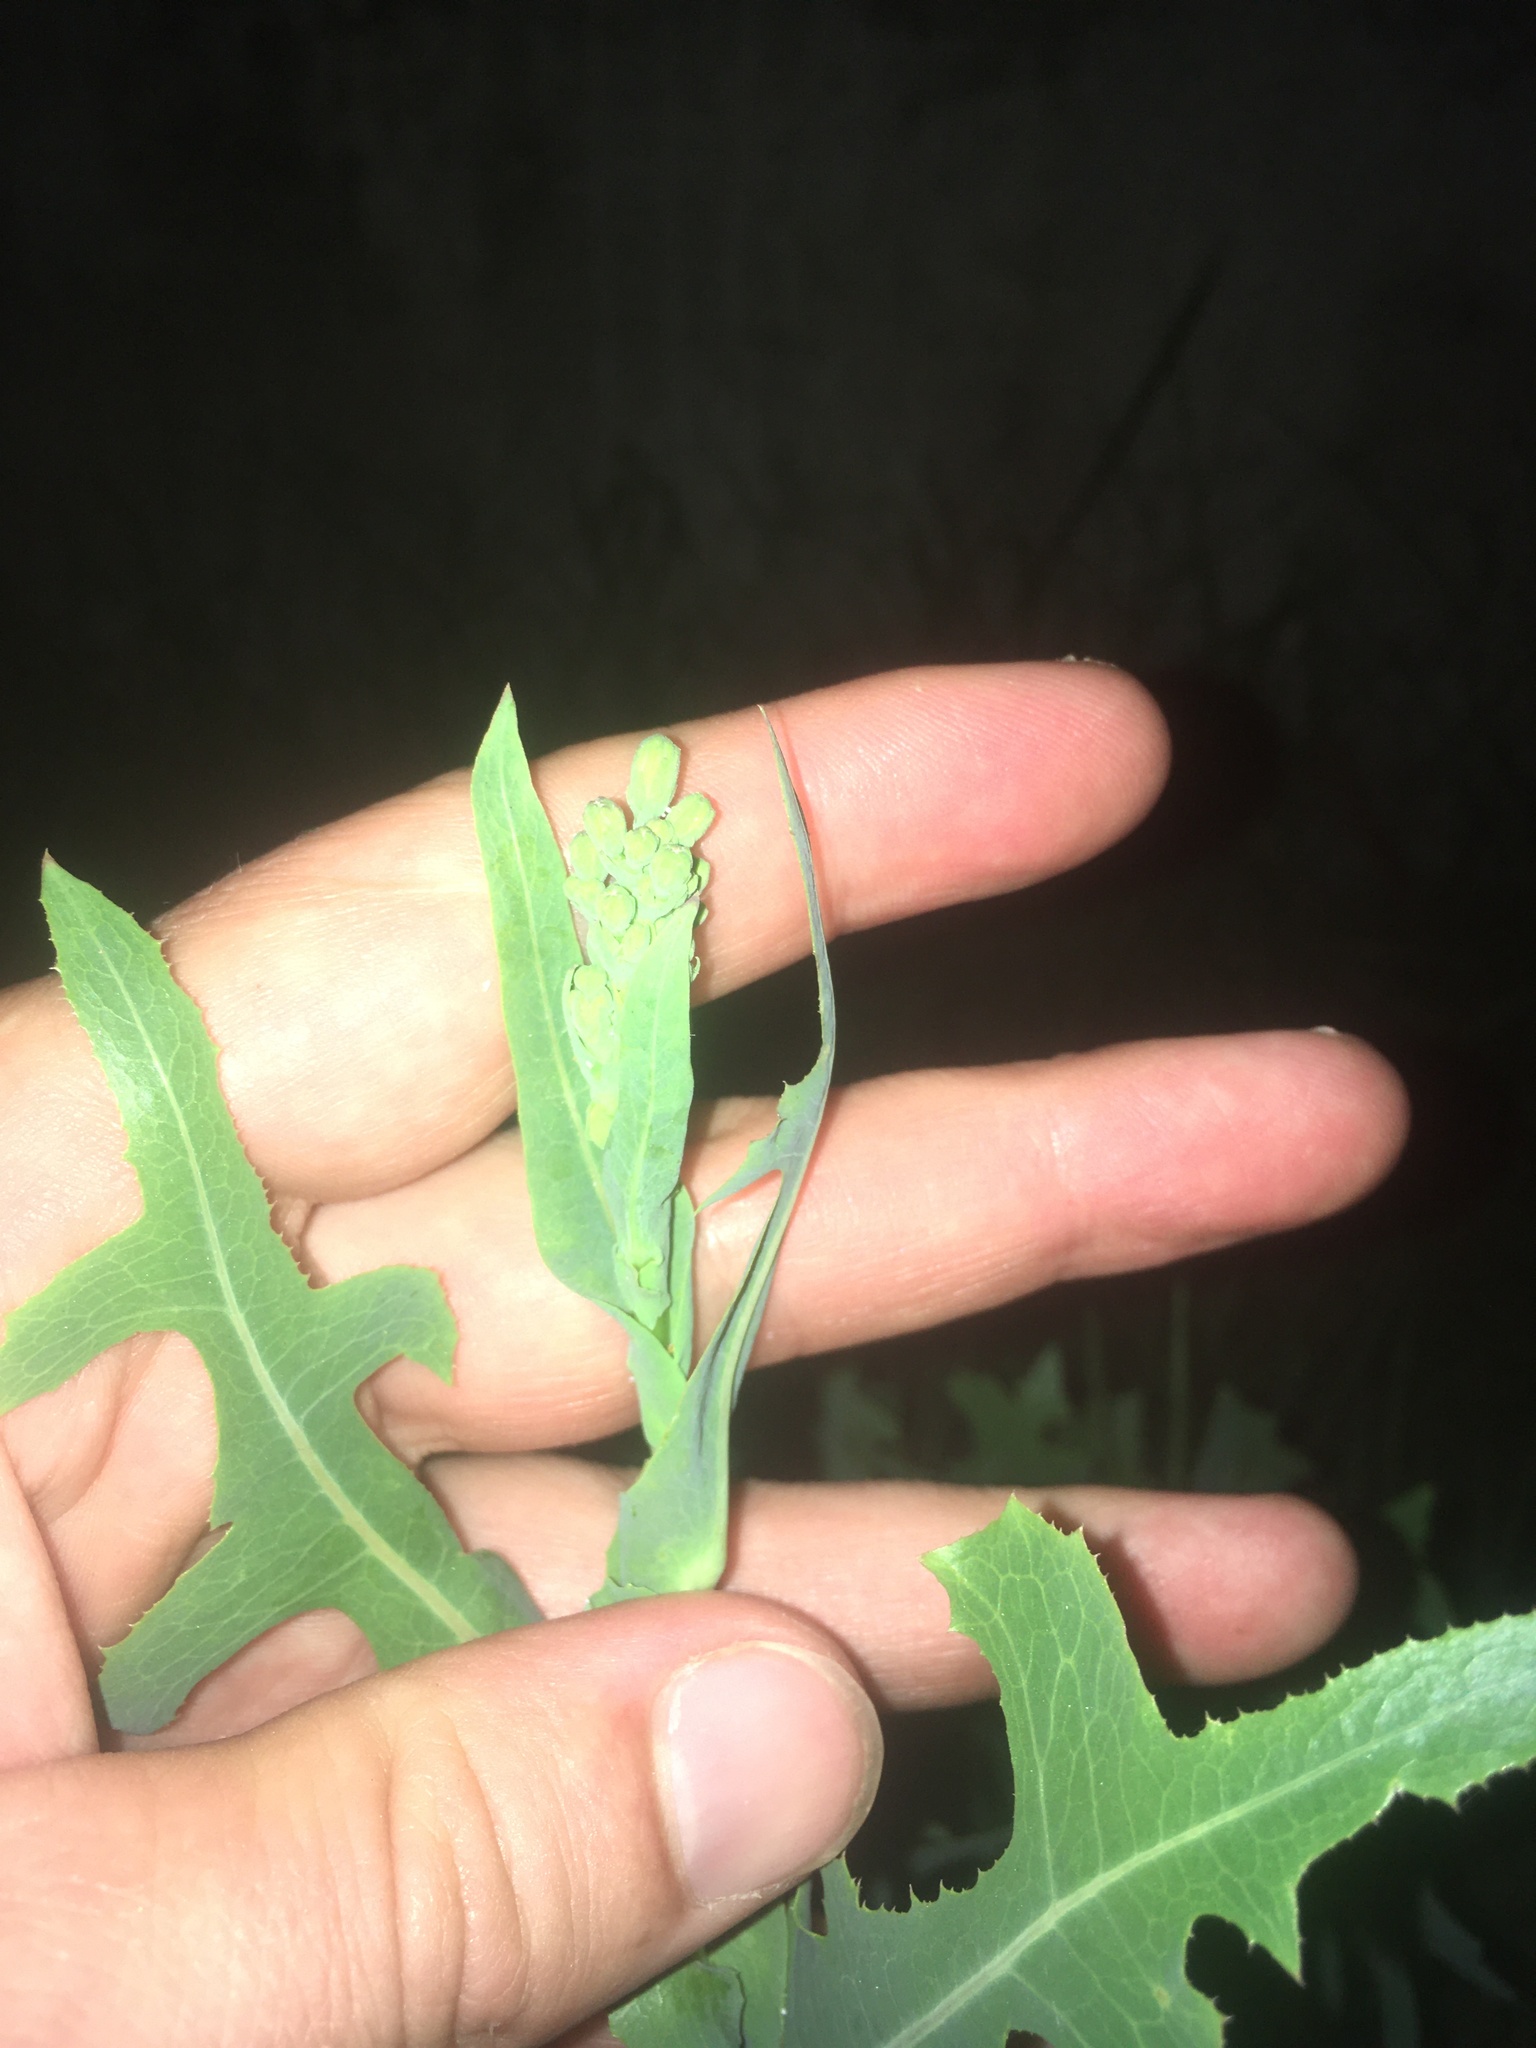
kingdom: Plantae
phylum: Tracheophyta
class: Magnoliopsida
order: Asterales
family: Asteraceae
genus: Lactuca
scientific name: Lactuca serriola
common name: Prickly lettuce
